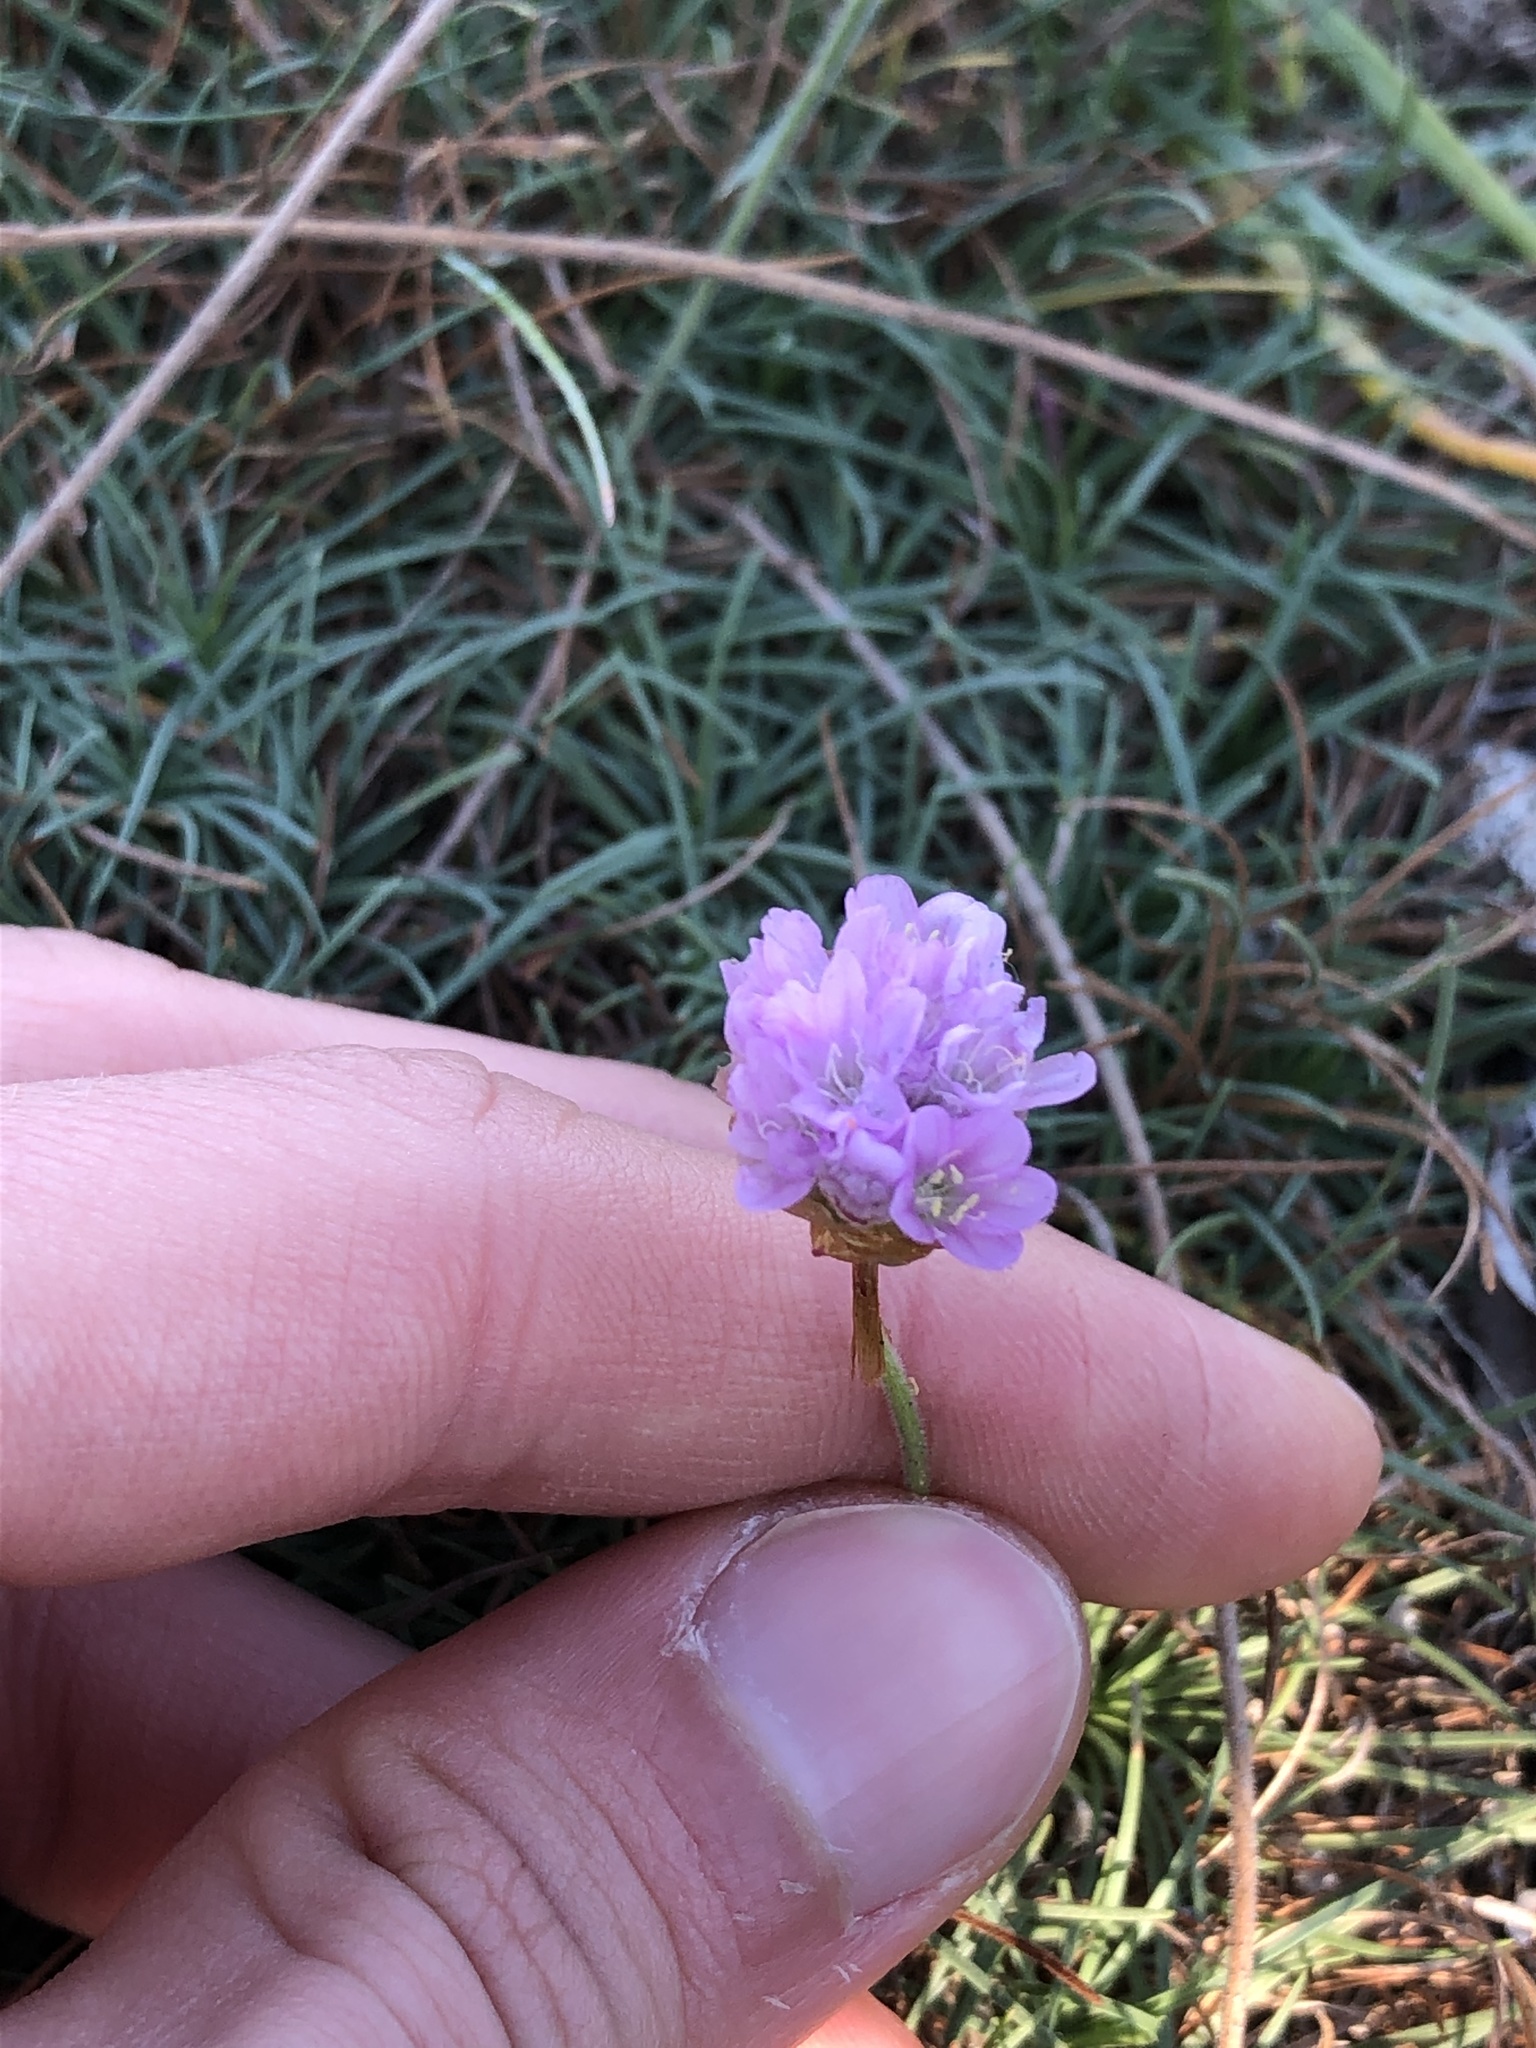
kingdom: Plantae
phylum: Tracheophyta
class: Magnoliopsida
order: Caryophyllales
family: Plumbaginaceae
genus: Armeria
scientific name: Armeria maritima
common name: Thrift
